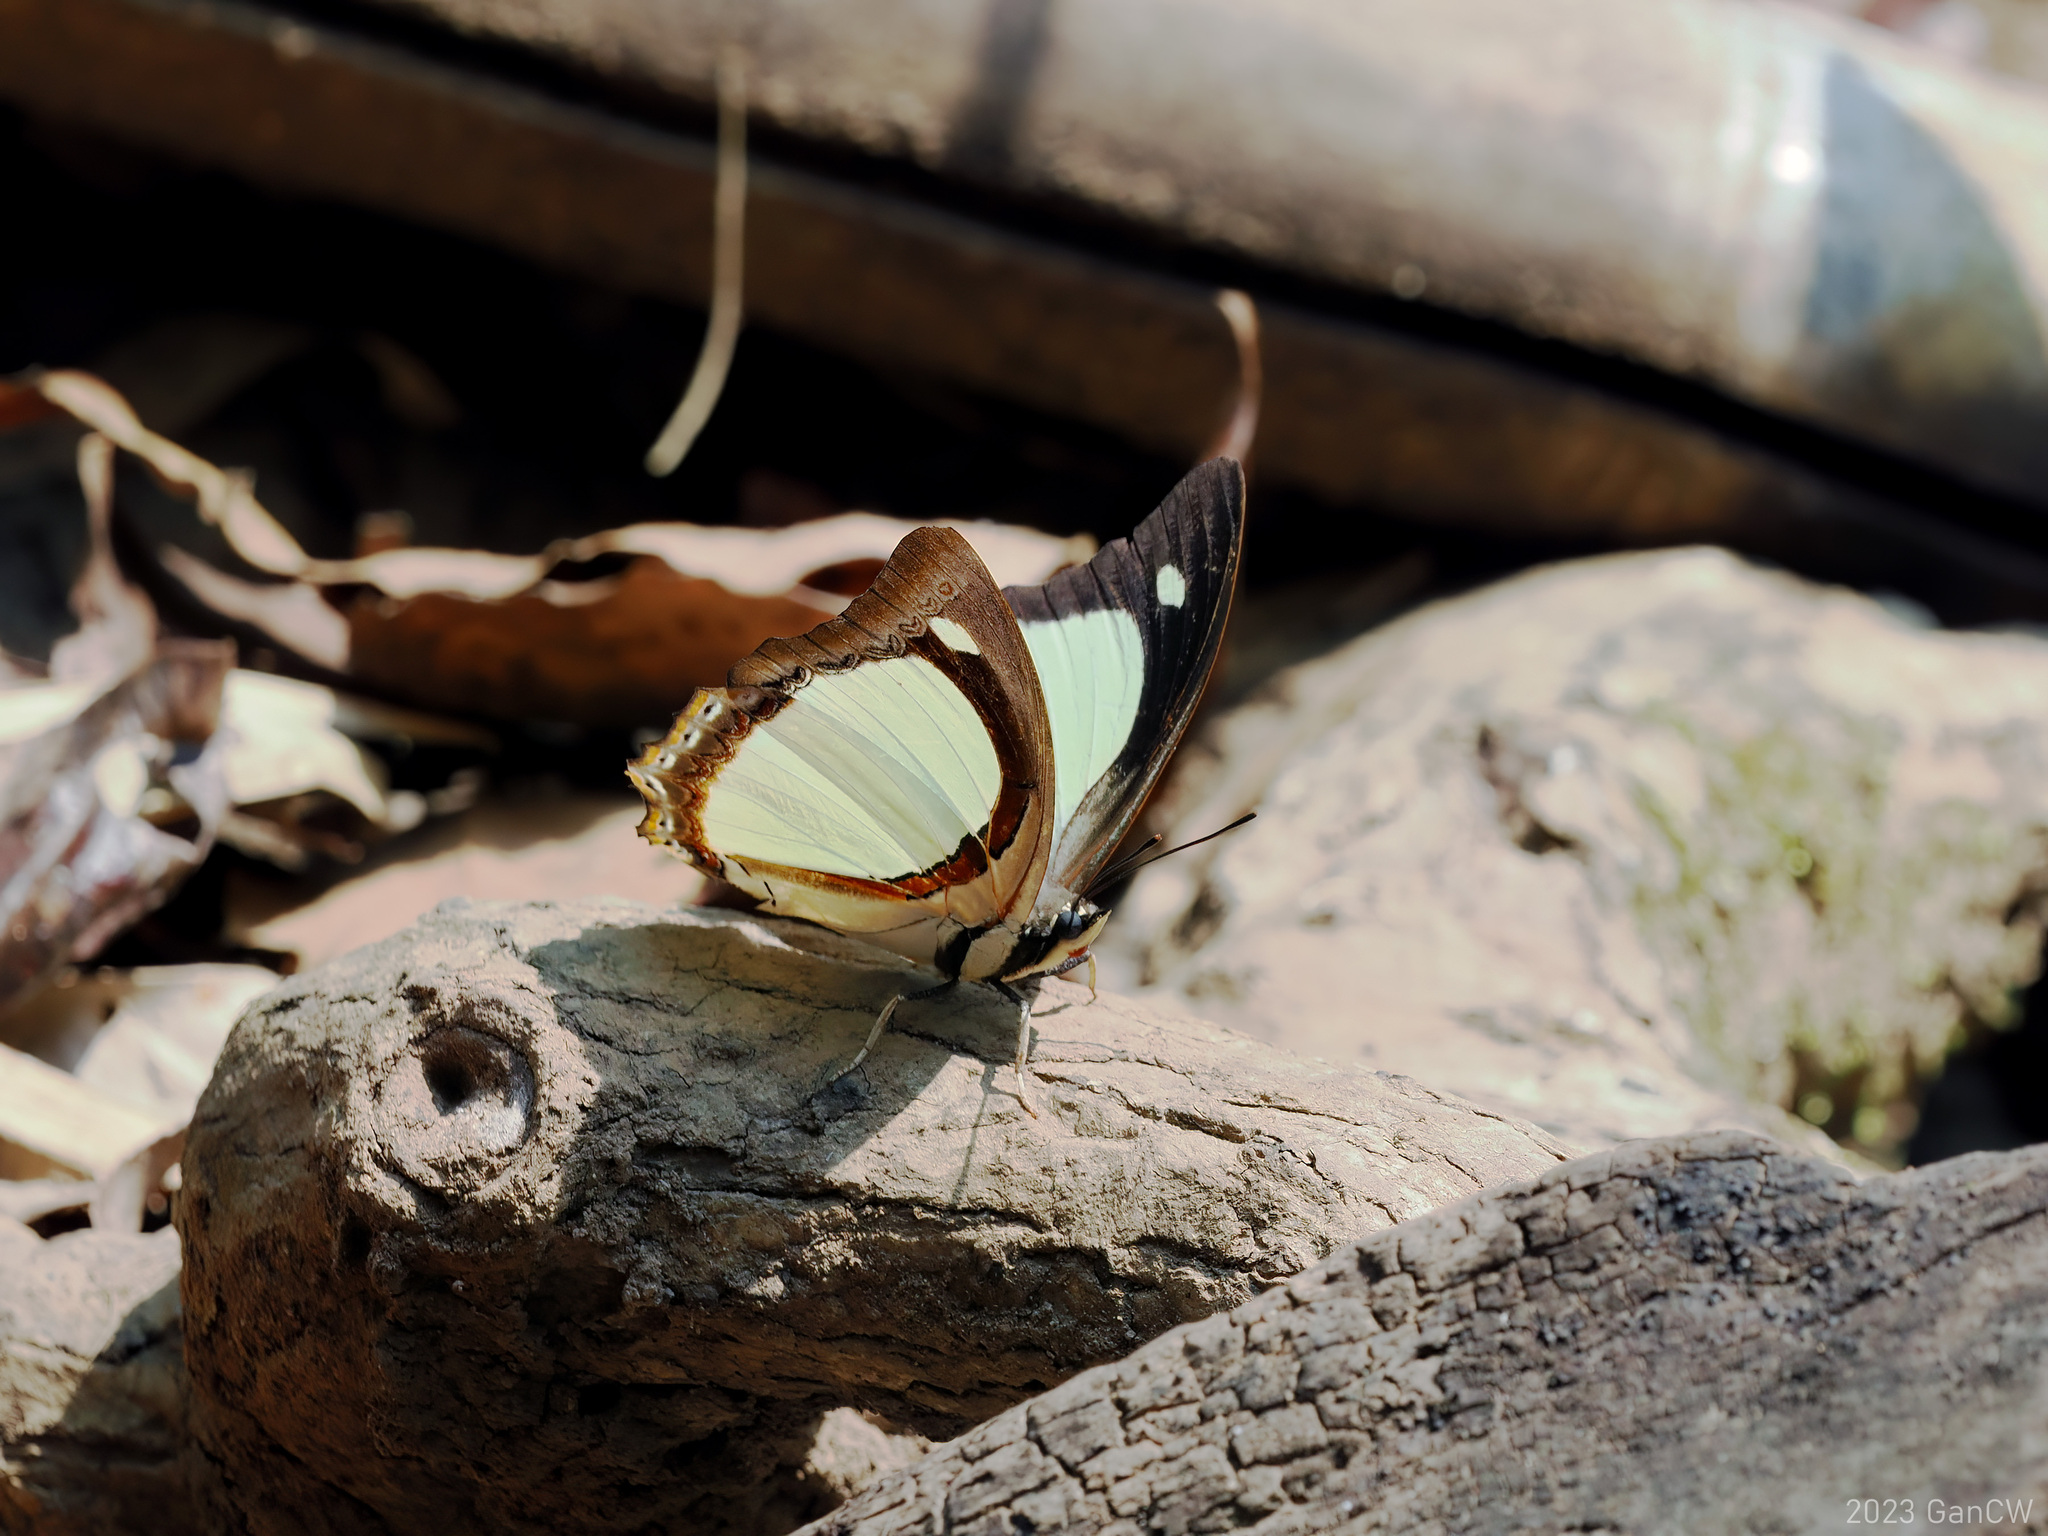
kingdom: Animalia
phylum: Arthropoda
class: Insecta
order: Lepidoptera
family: Nymphalidae
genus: Polyura
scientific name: Polyura jalysus
